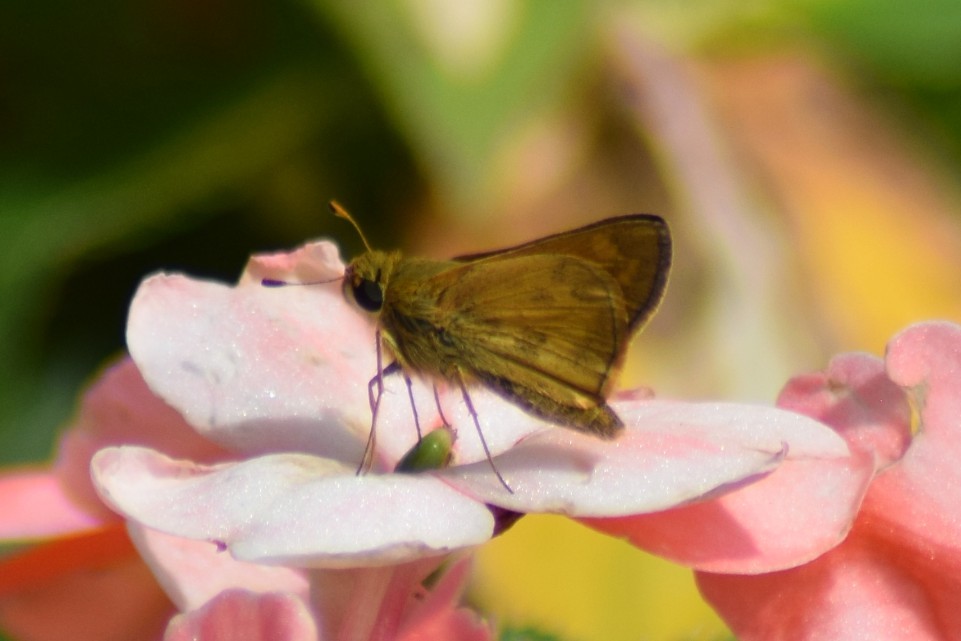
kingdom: Animalia
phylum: Arthropoda
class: Insecta
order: Lepidoptera
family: Hesperiidae
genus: Atalopedes
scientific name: Atalopedes
